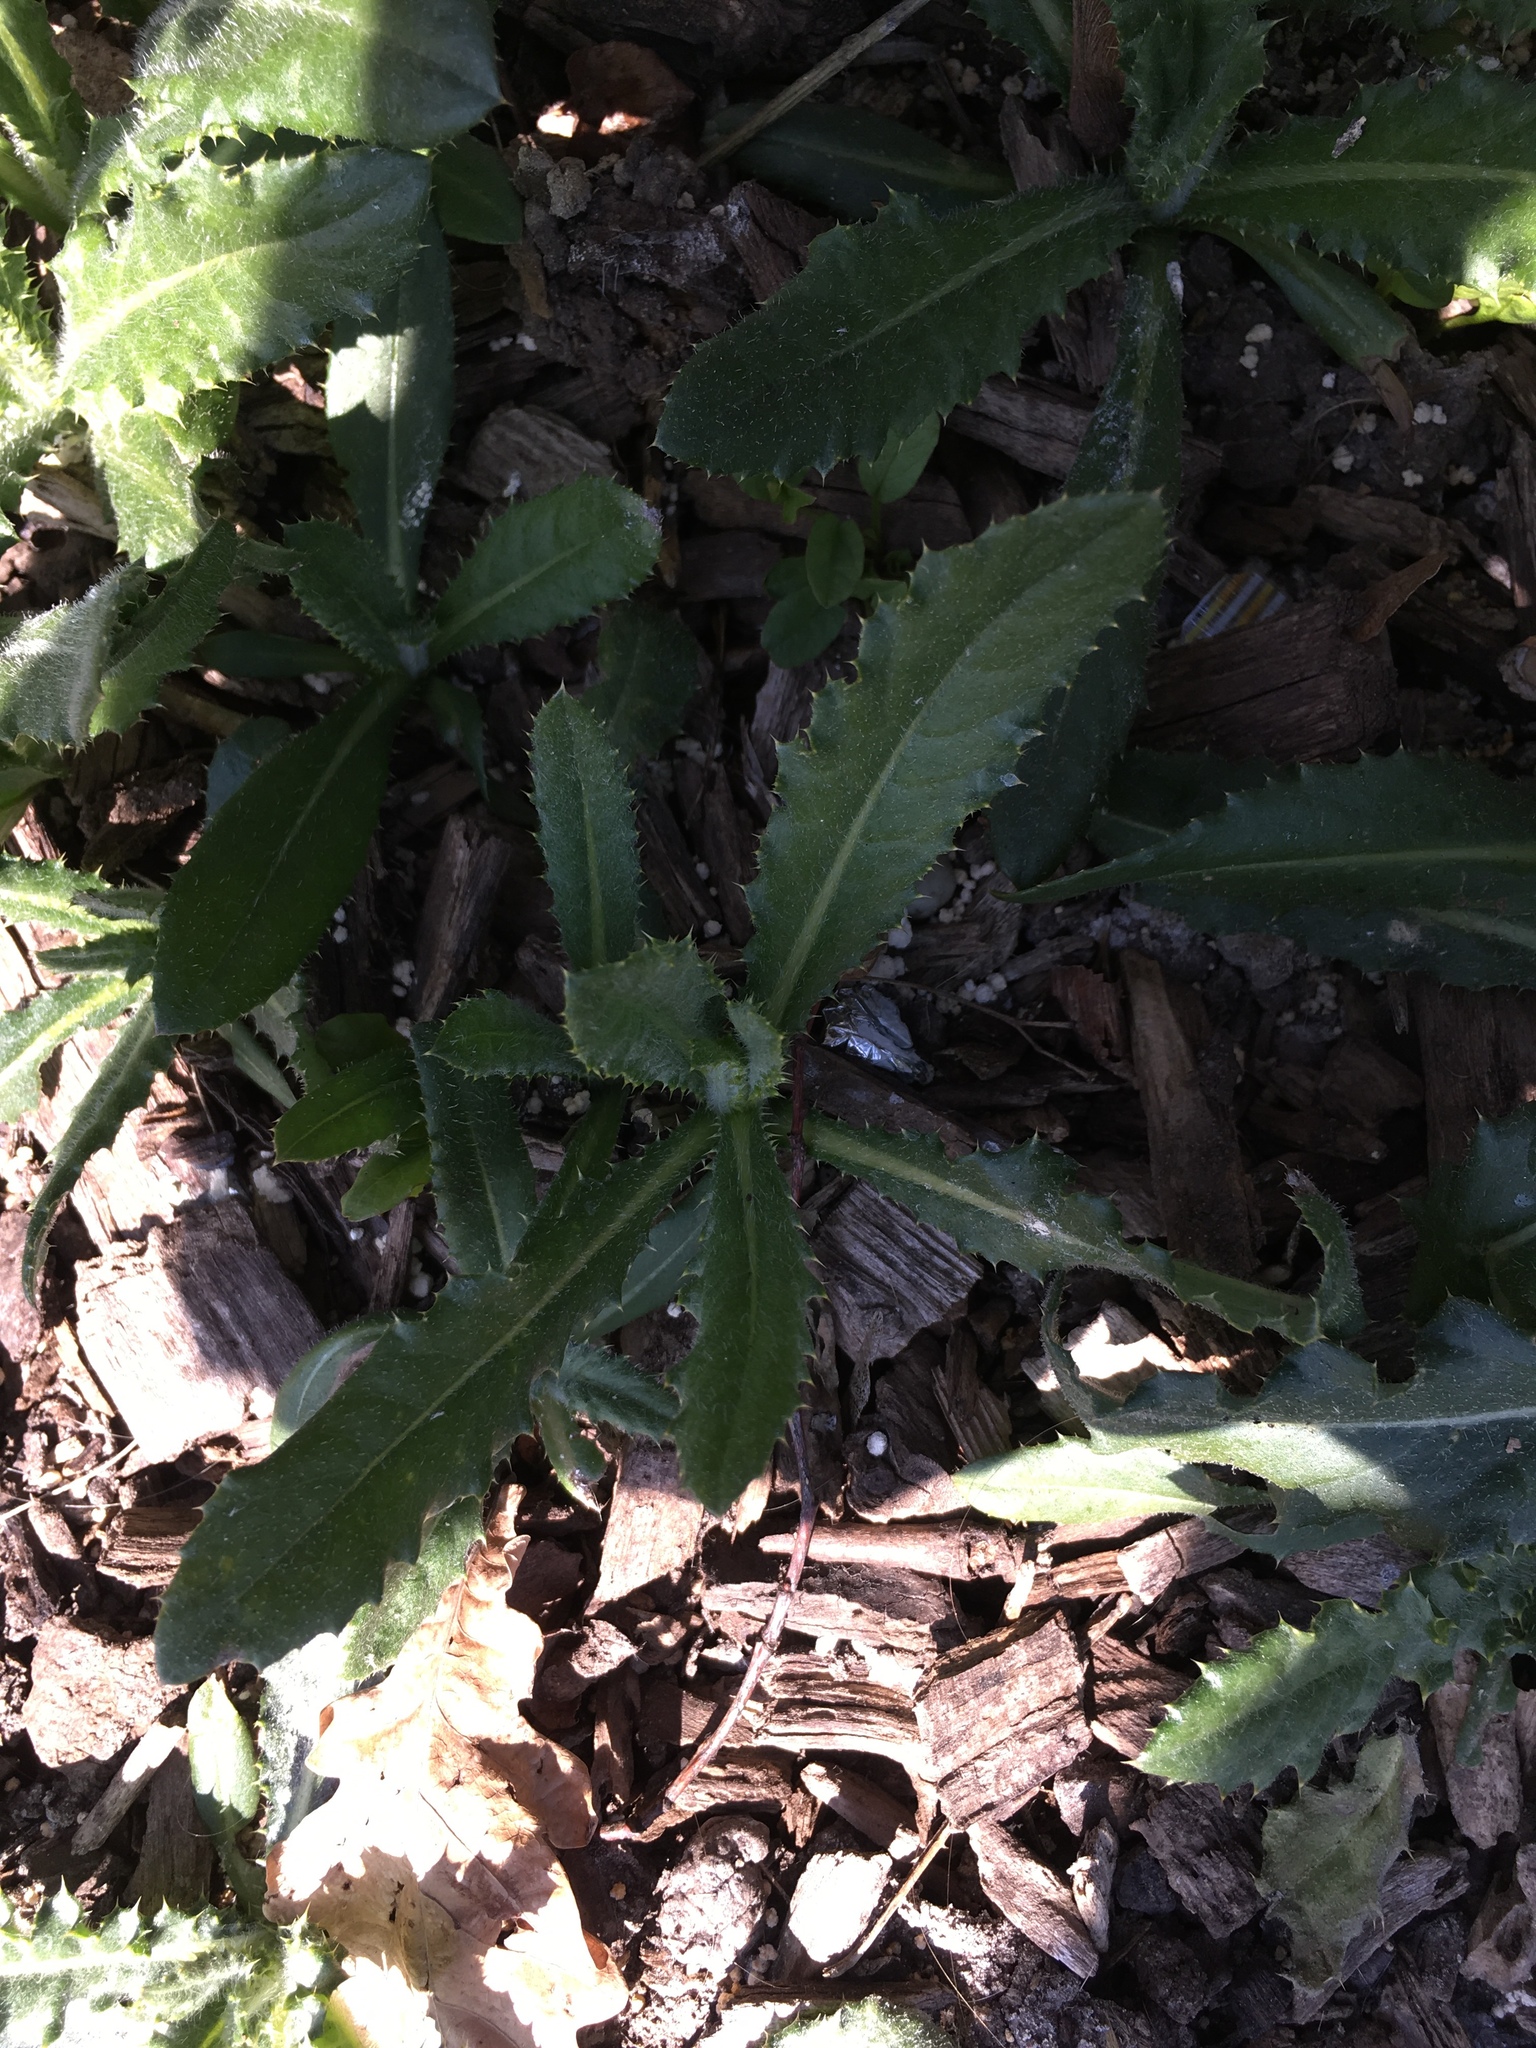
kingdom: Plantae
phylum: Tracheophyta
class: Magnoliopsida
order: Asterales
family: Asteraceae
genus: Cirsium
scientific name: Cirsium vulgare
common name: Bull thistle
